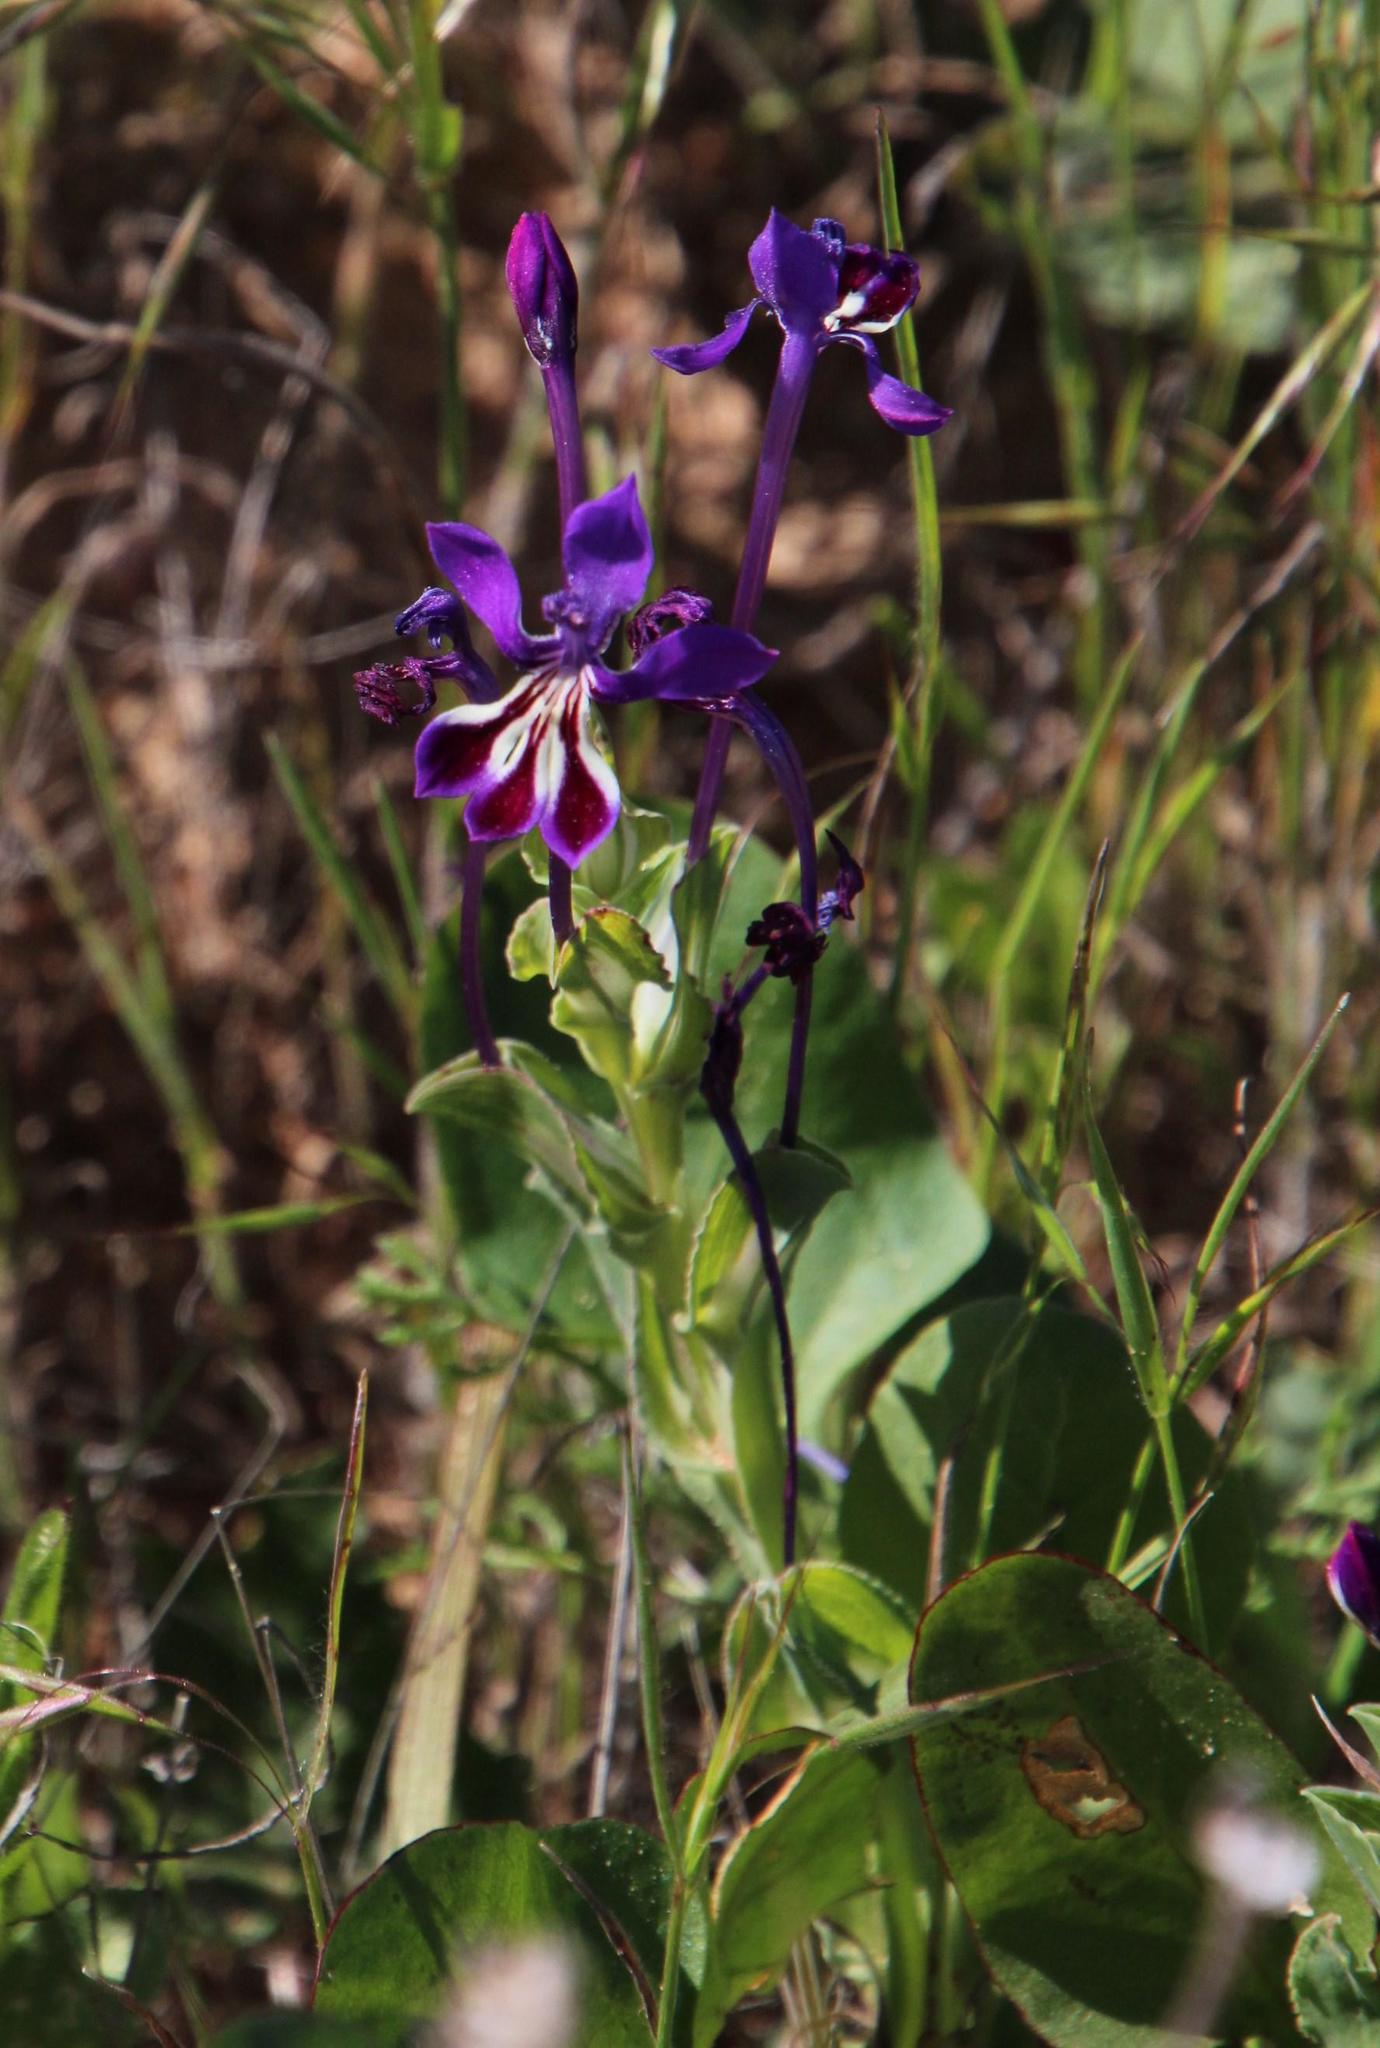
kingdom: Plantae
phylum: Tracheophyta
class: Liliopsida
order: Asparagales
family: Iridaceae
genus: Lapeirousia
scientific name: Lapeirousia jacquinii
